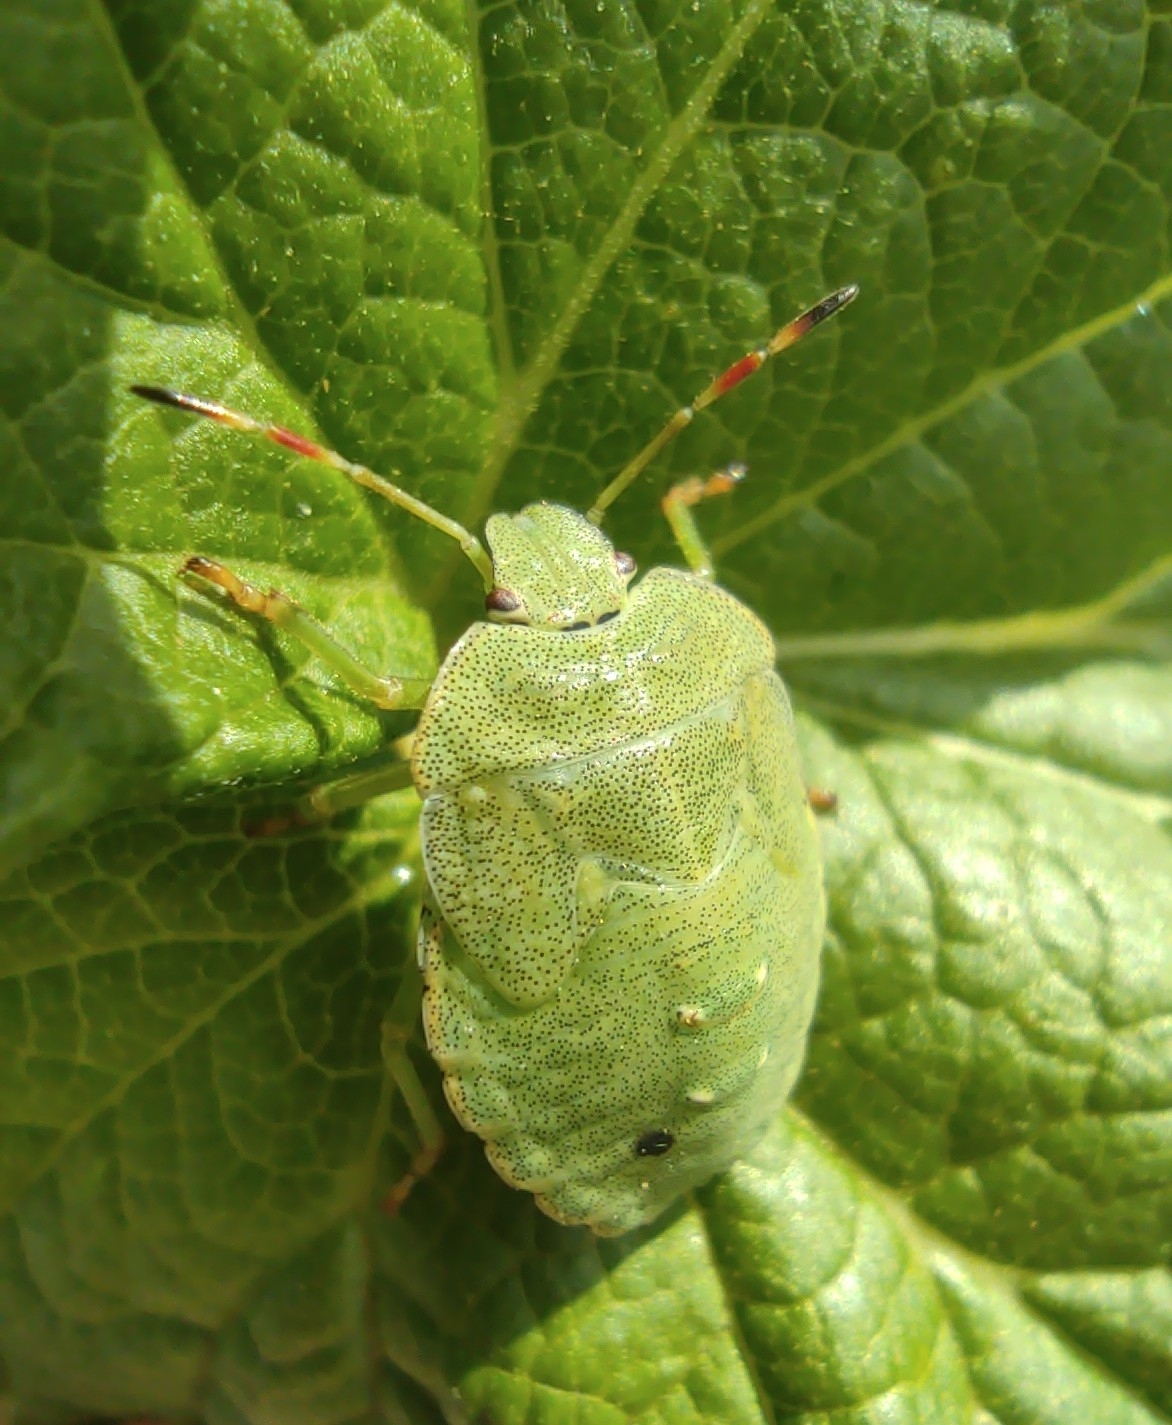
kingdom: Animalia
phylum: Arthropoda
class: Insecta
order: Hemiptera
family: Pentatomidae
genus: Palomena
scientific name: Palomena prasina
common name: Green shieldbug
